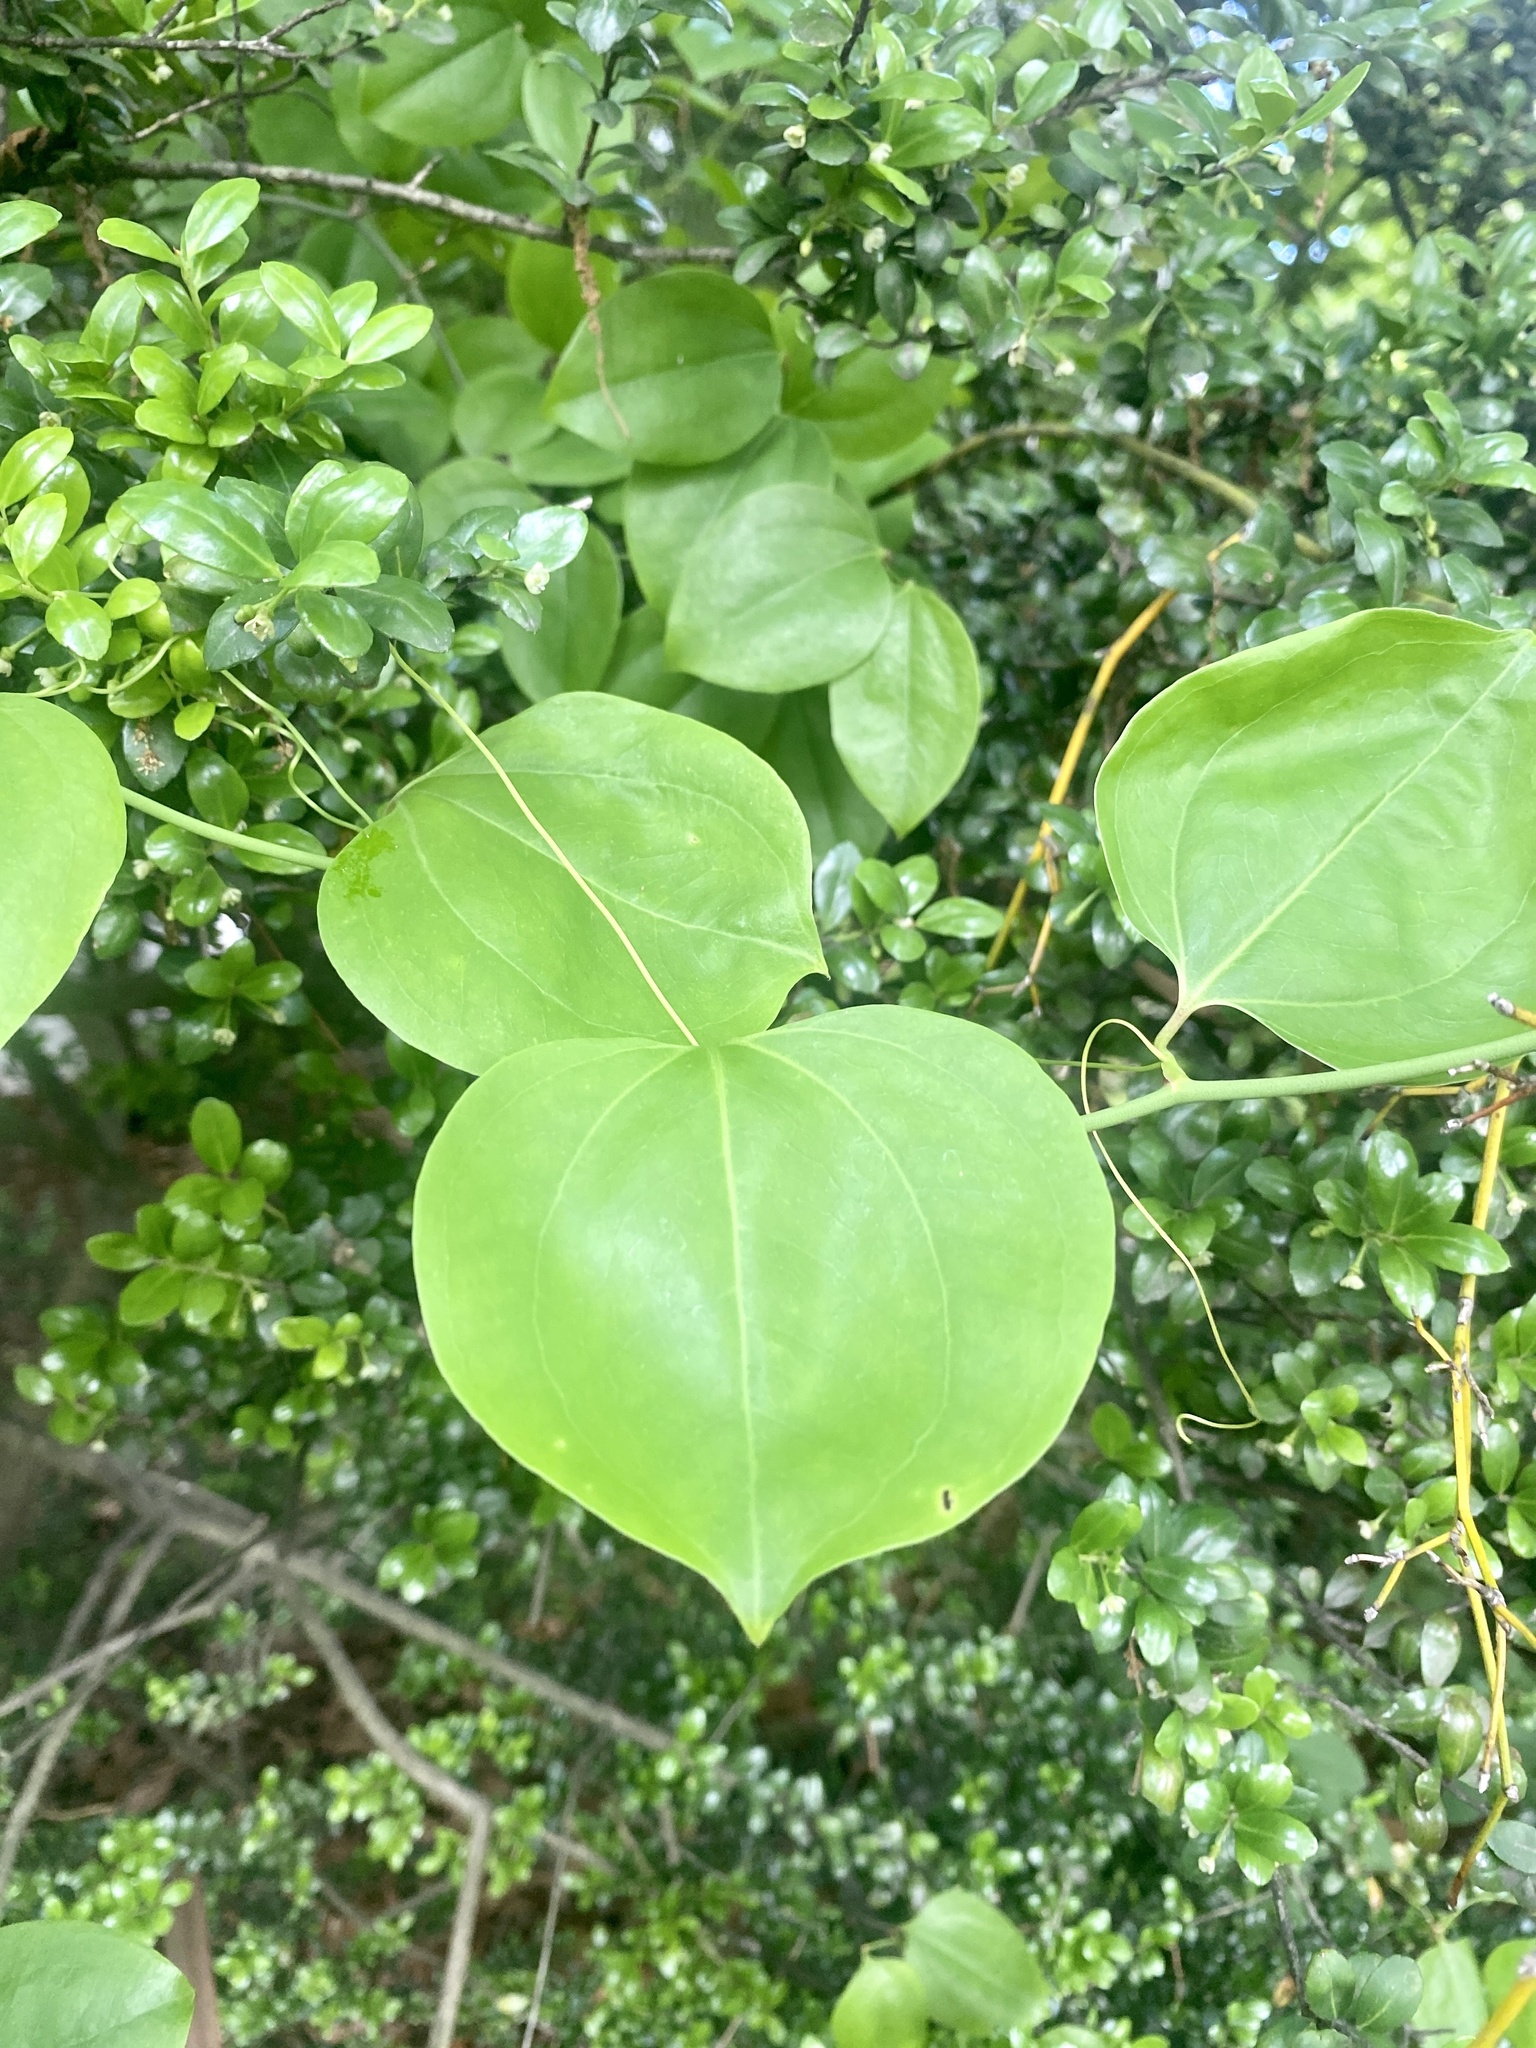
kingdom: Plantae
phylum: Tracheophyta
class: Liliopsida
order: Liliales
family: Smilacaceae
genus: Smilax
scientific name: Smilax rotundifolia
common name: Bullbriar
